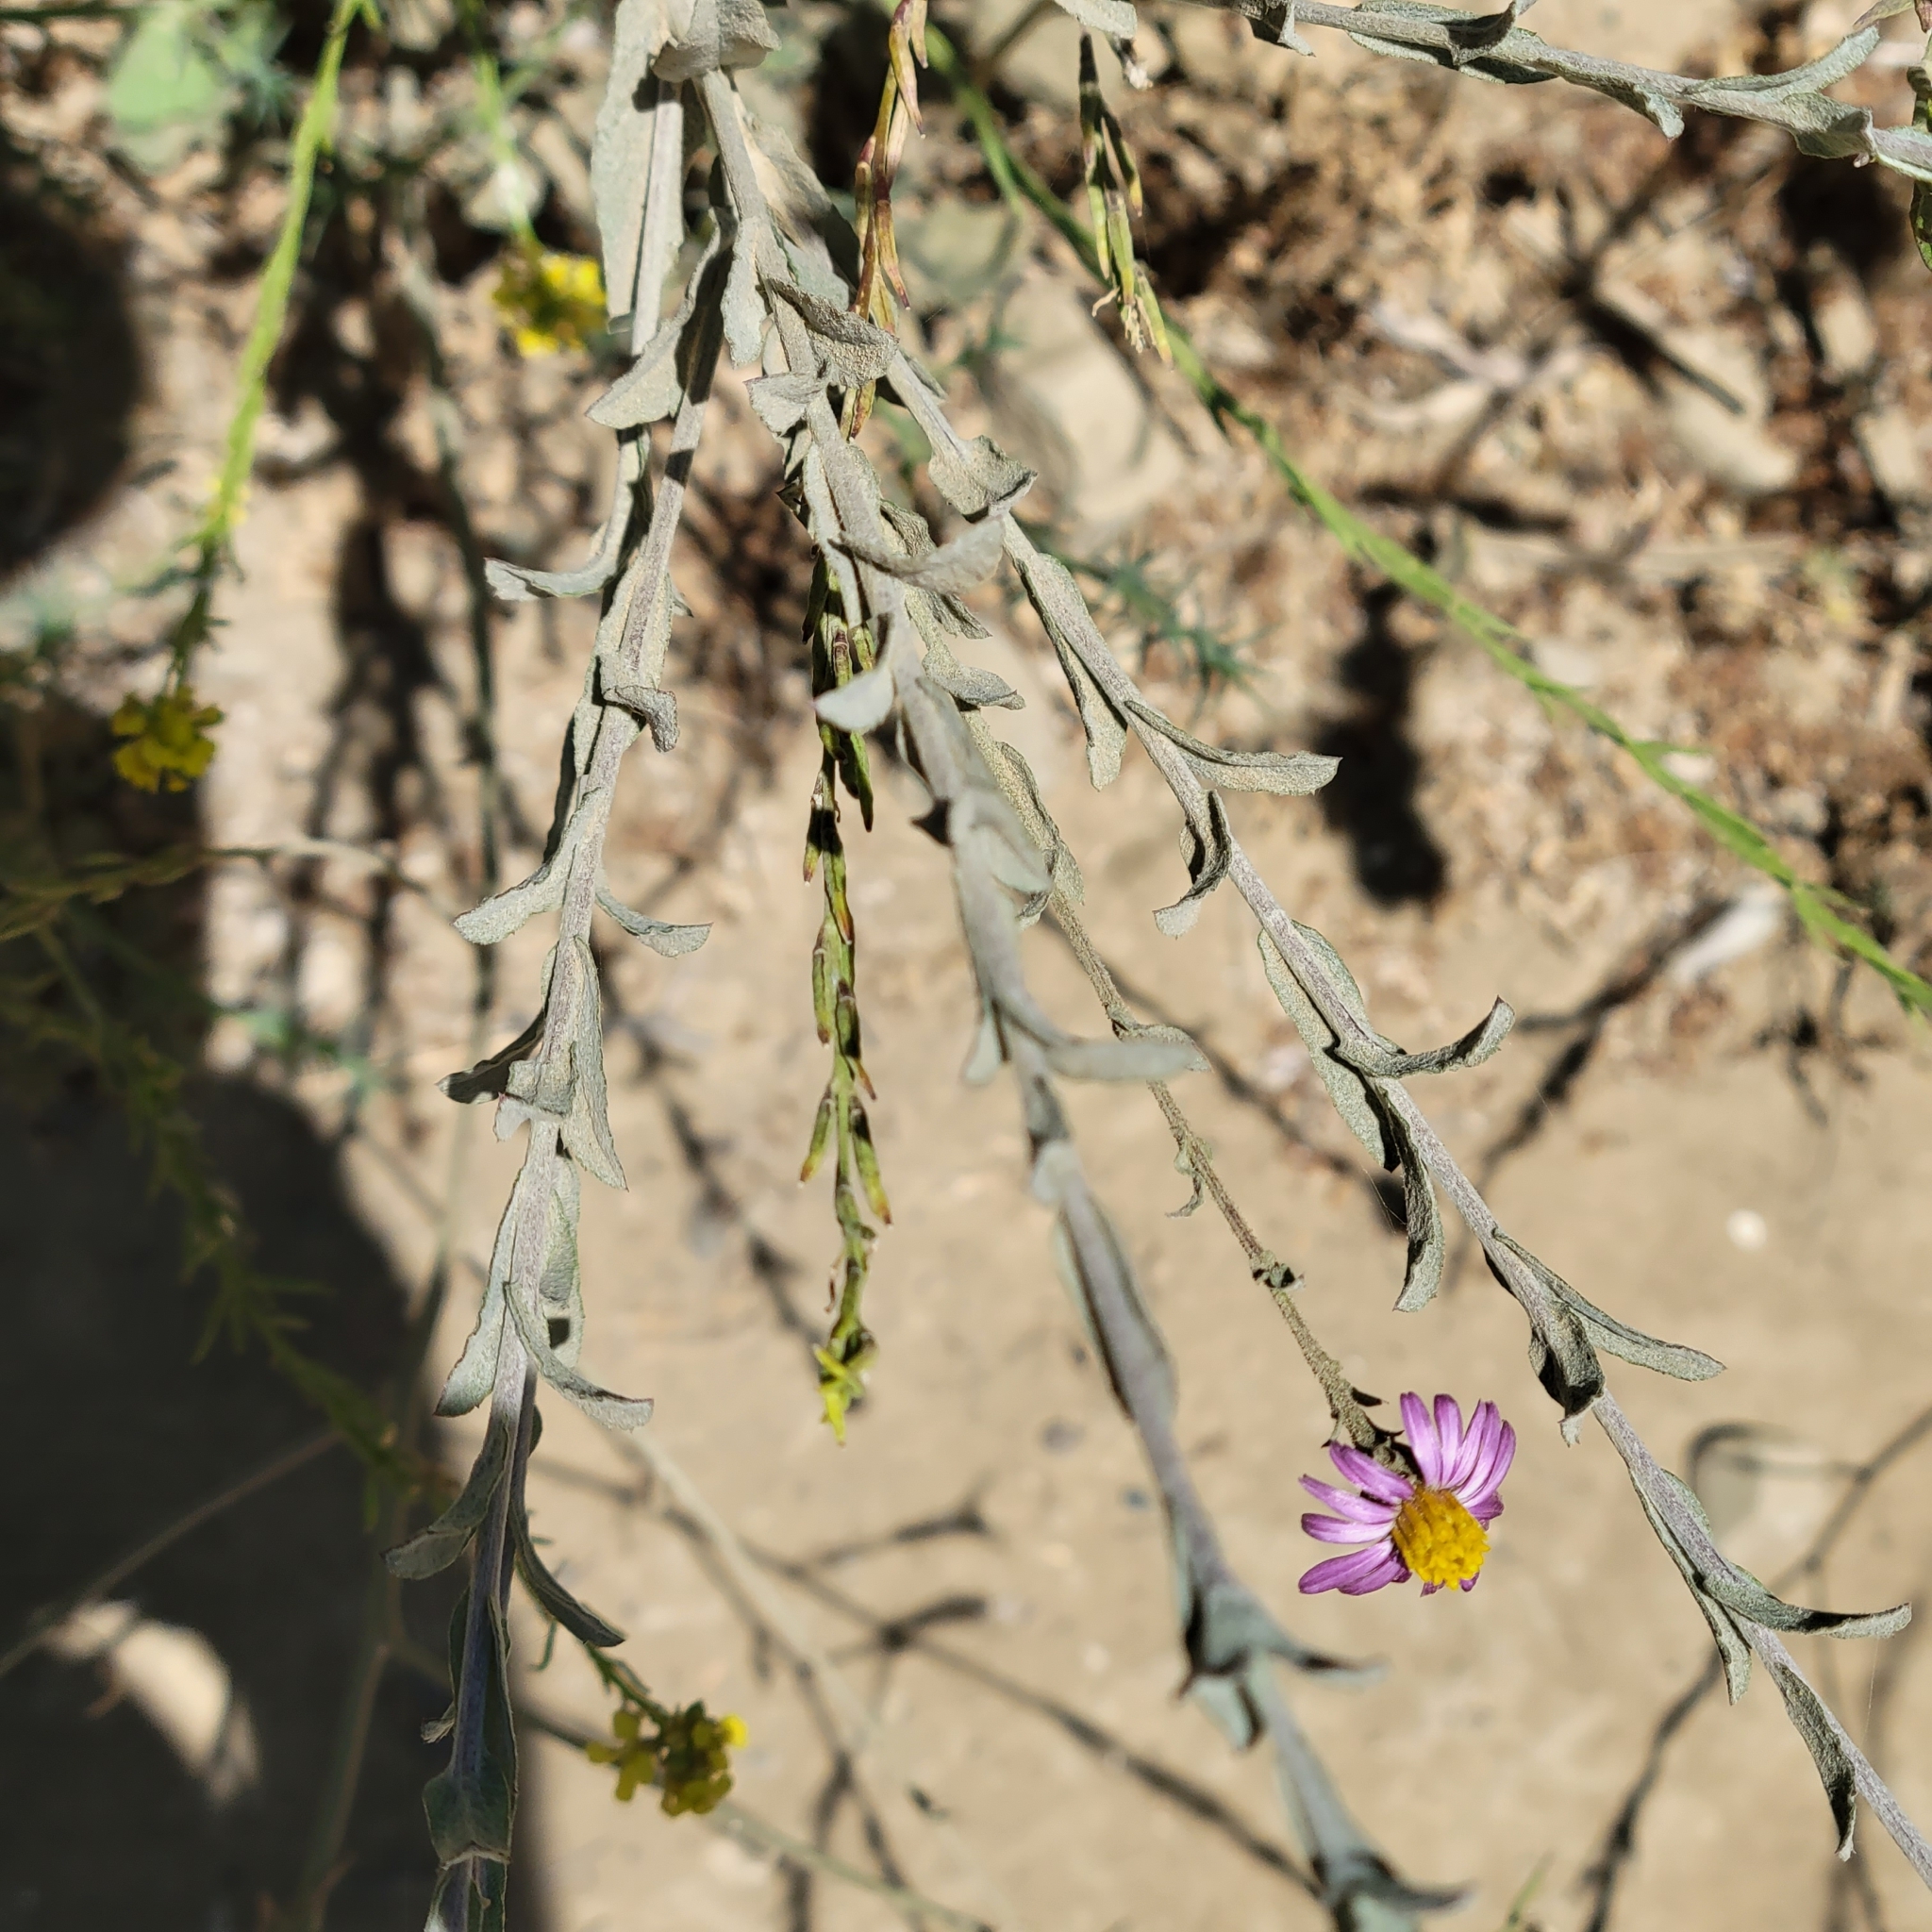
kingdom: Plantae
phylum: Tracheophyta
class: Magnoliopsida
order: Asterales
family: Asteraceae
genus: Corethrogyne
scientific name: Corethrogyne filaginifolia
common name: Sand-aster
